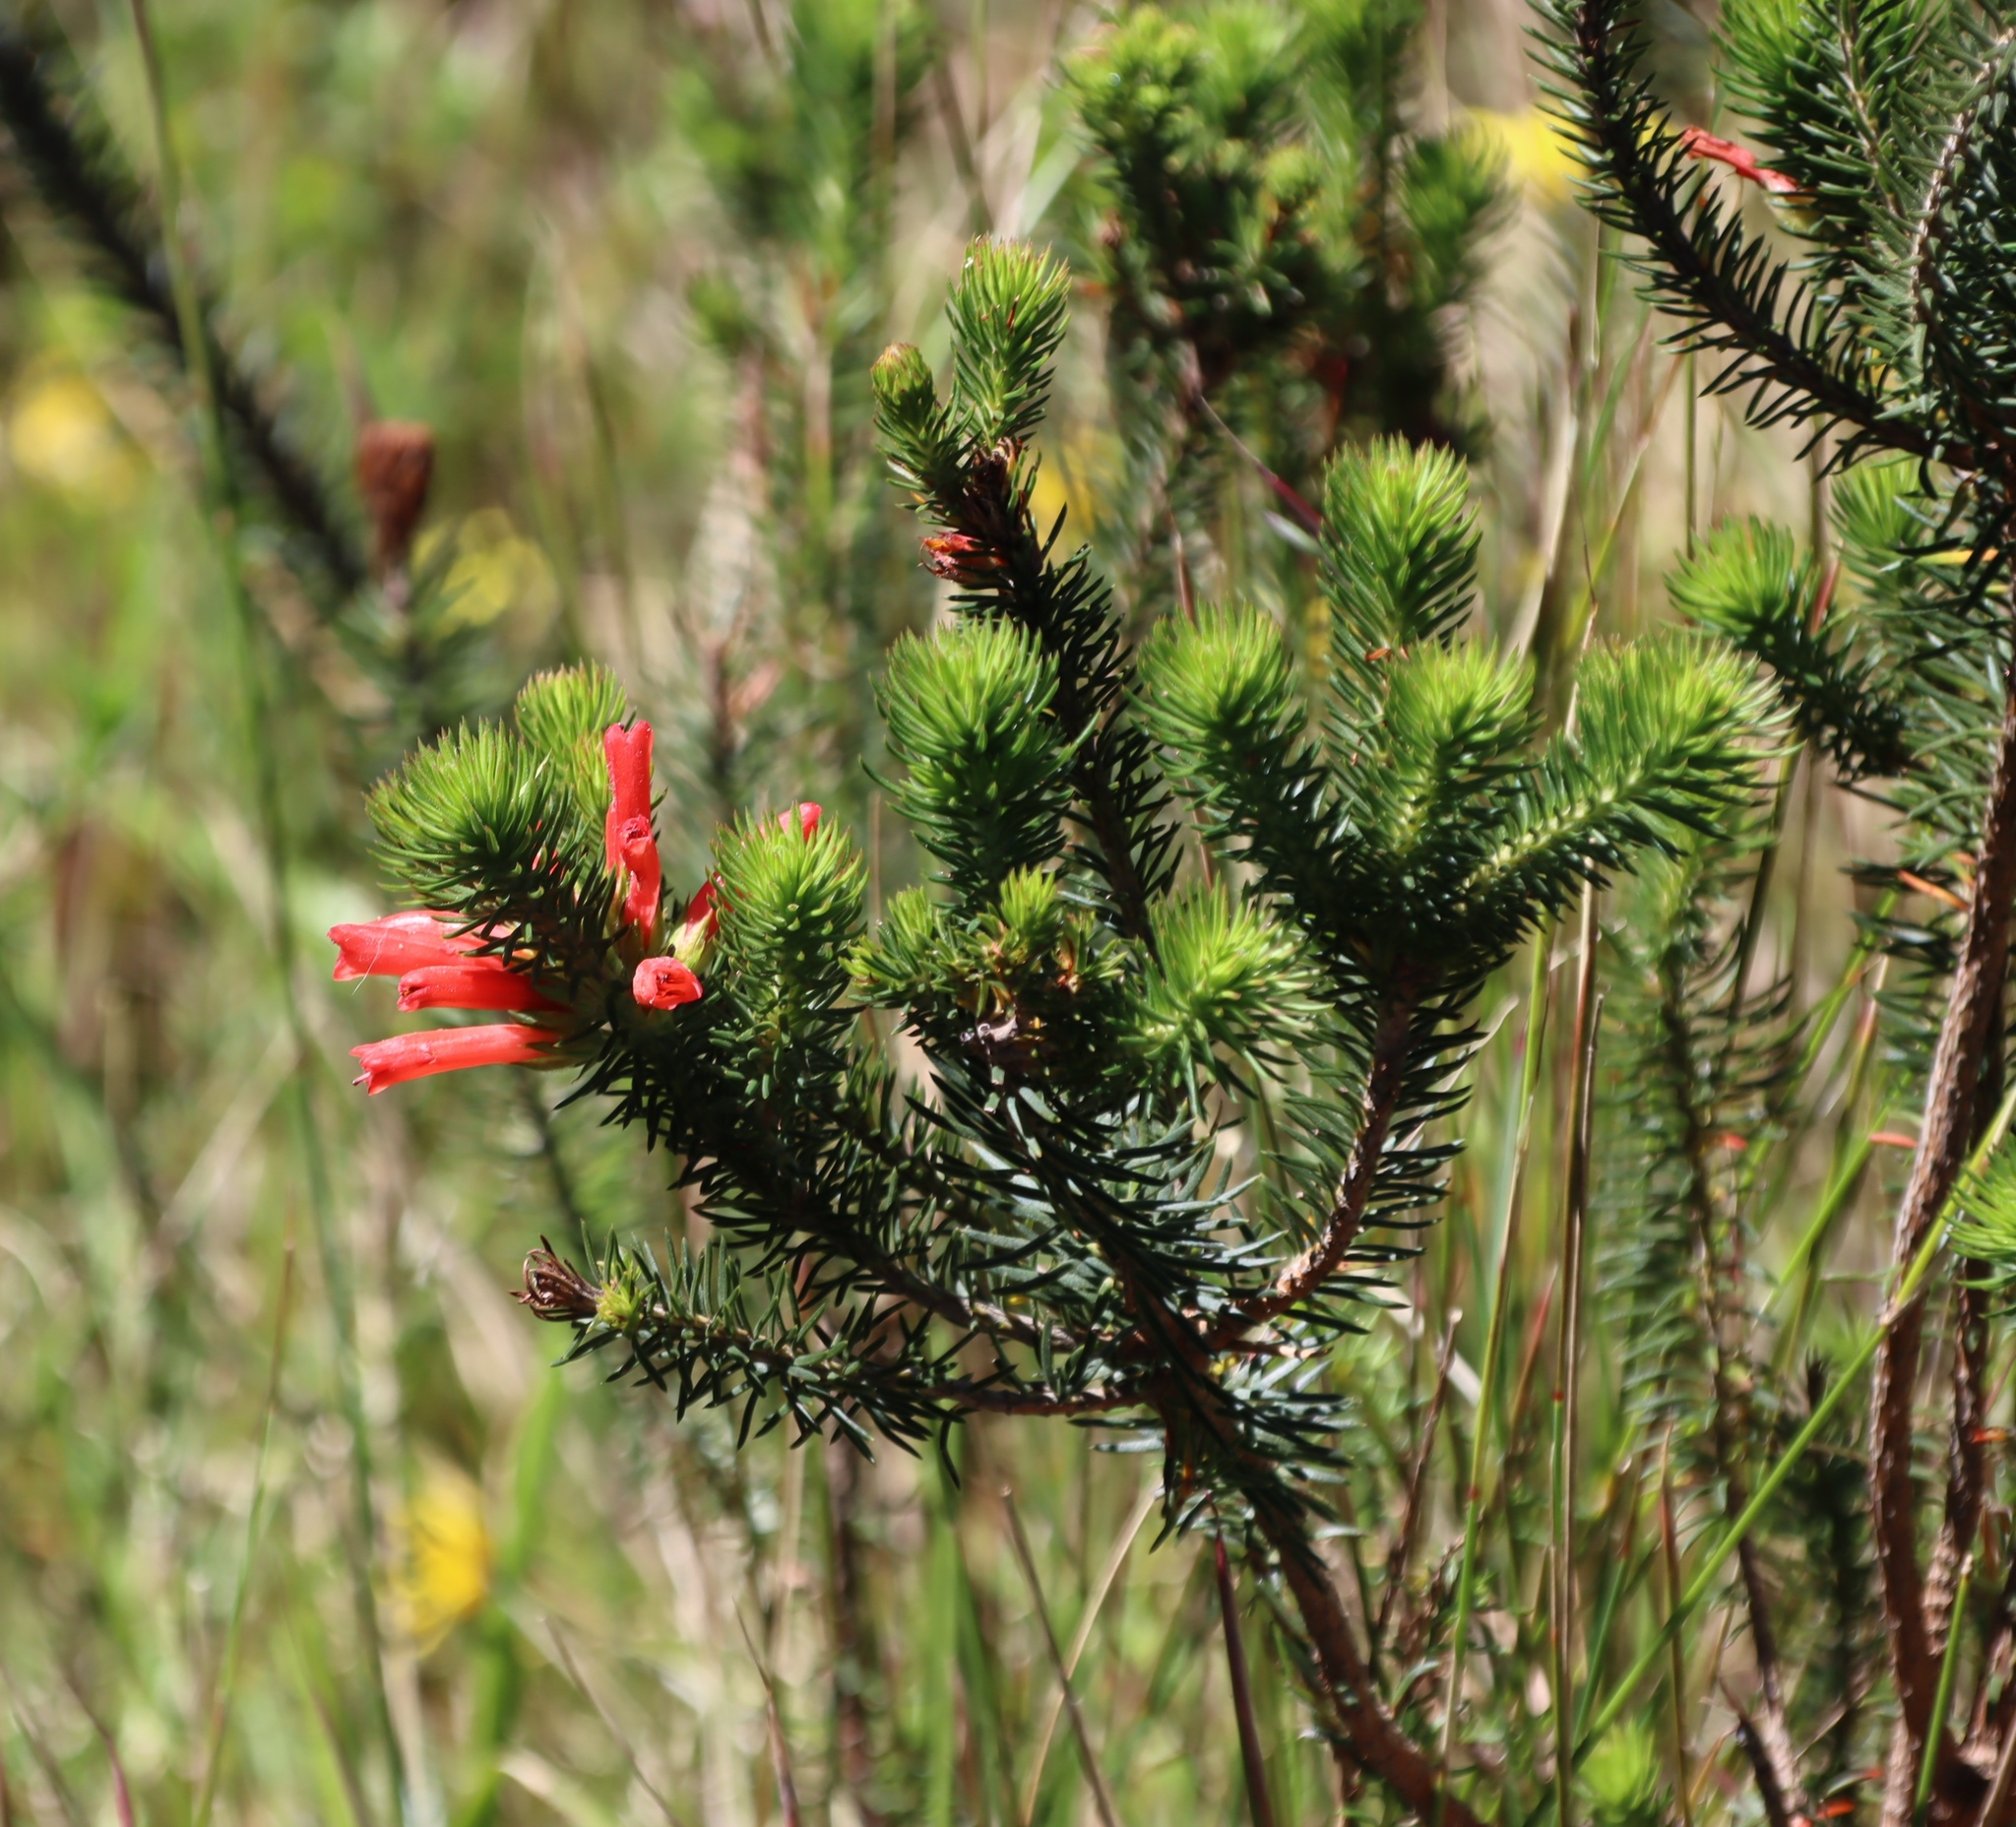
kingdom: Plantae
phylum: Tracheophyta
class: Magnoliopsida
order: Ericales
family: Ericaceae
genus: Erica
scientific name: Erica abietina
